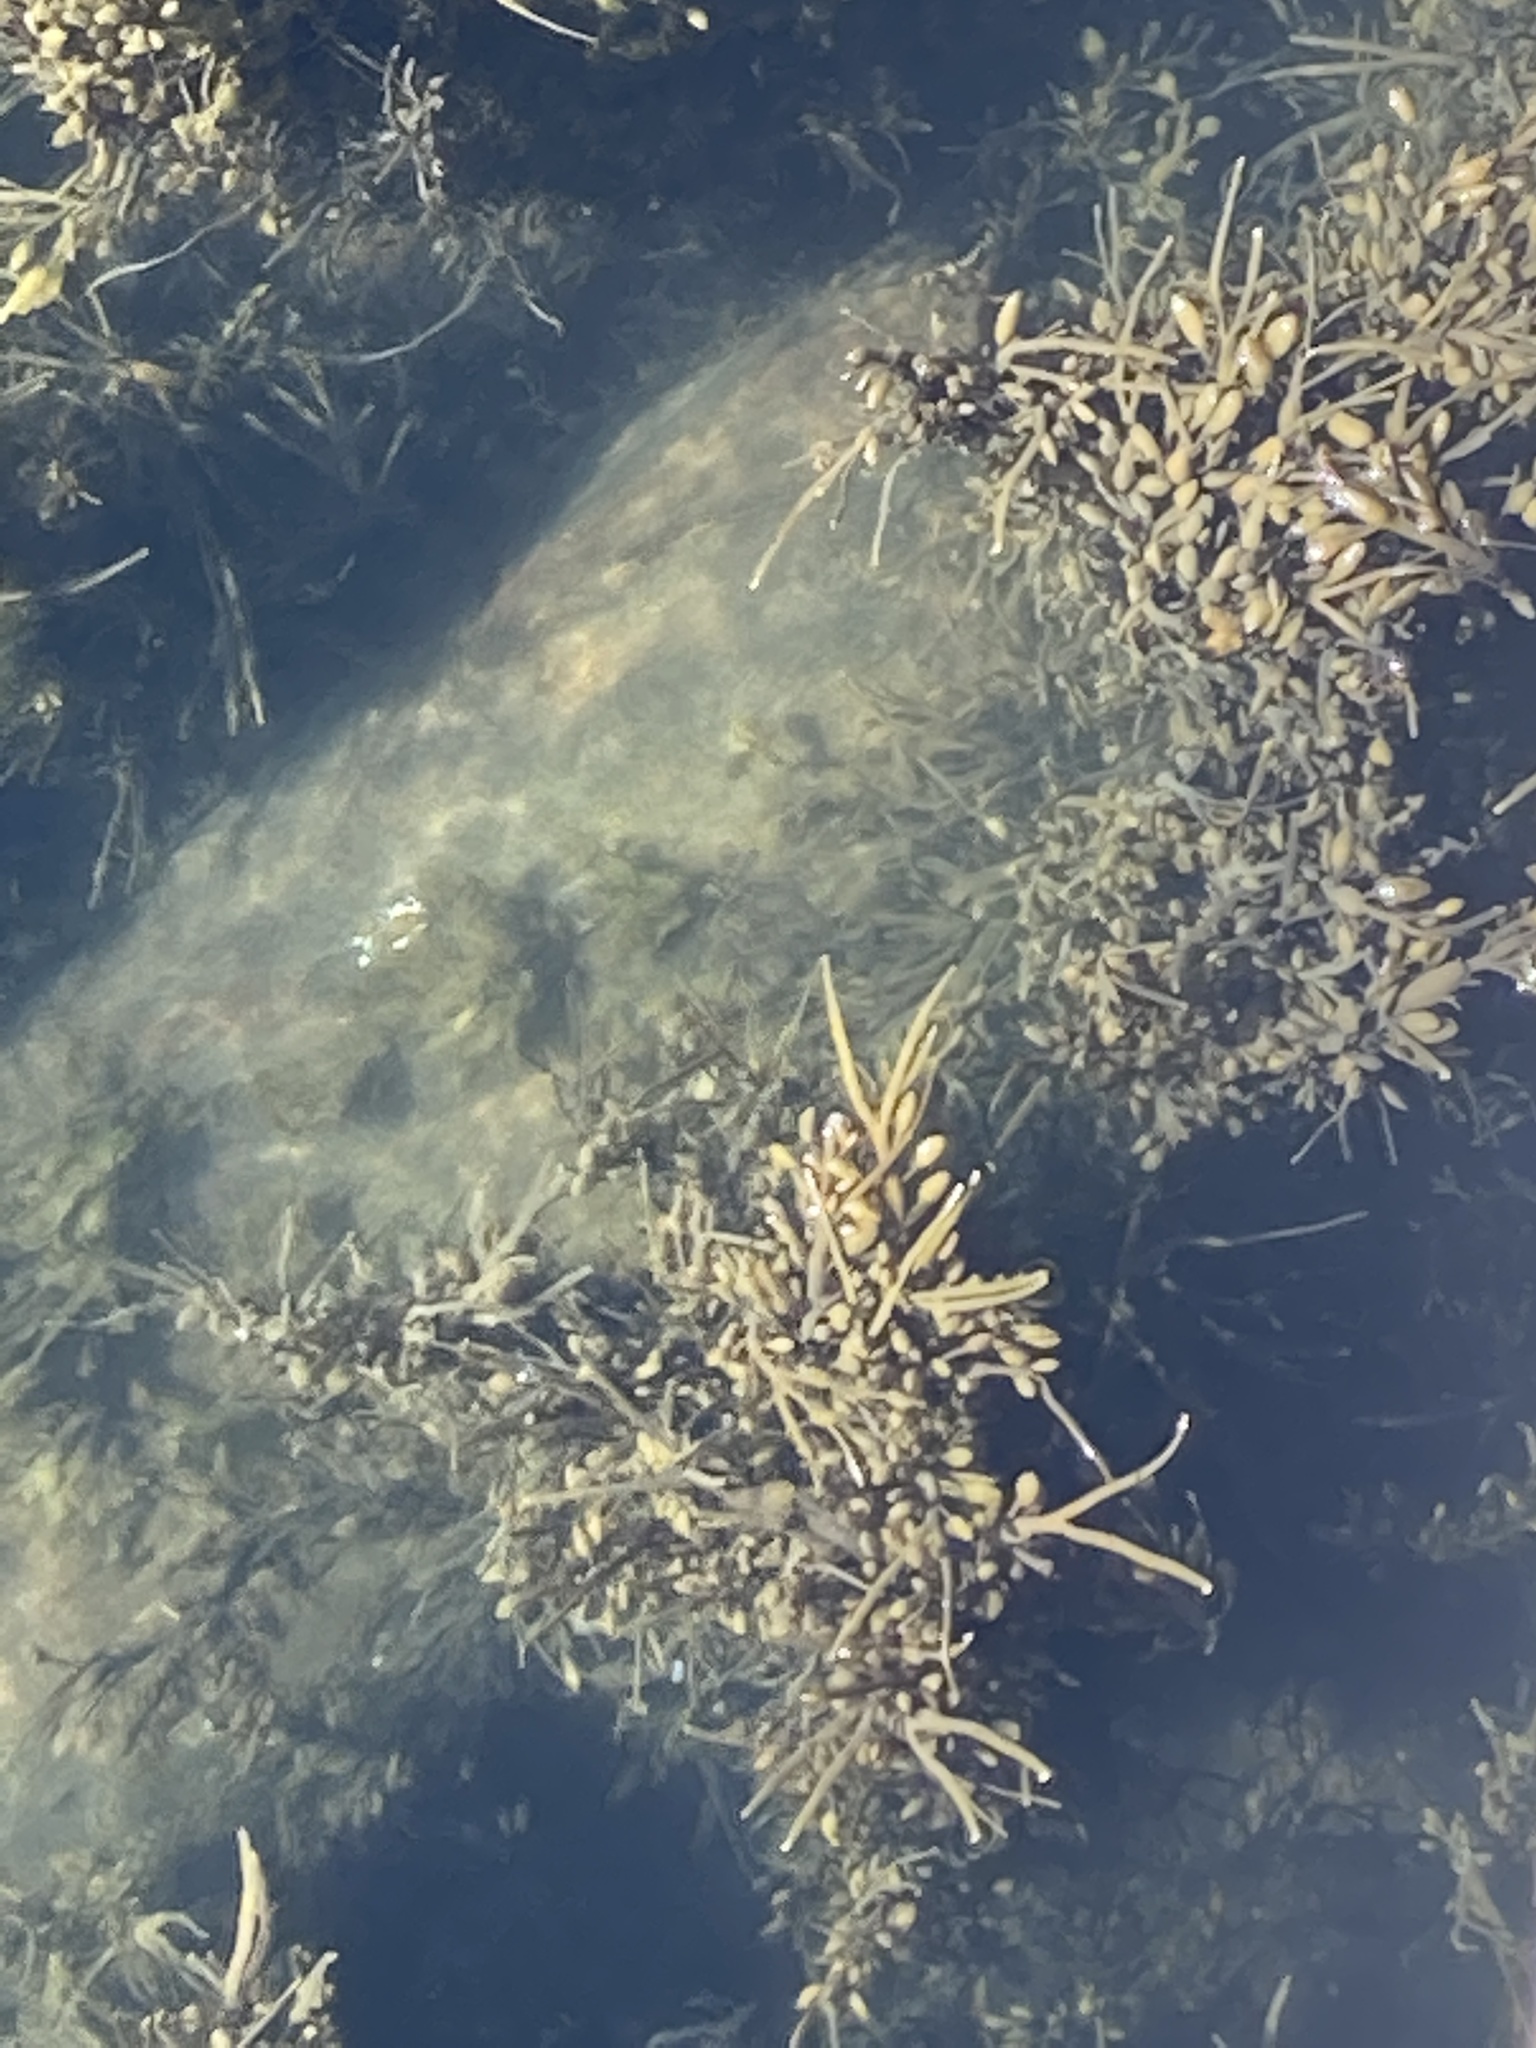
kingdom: Chromista
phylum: Ochrophyta
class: Phaeophyceae
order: Fucales
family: Fucaceae
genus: Ascophyllum
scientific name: Ascophyllum nodosum
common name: Knotted wrack
